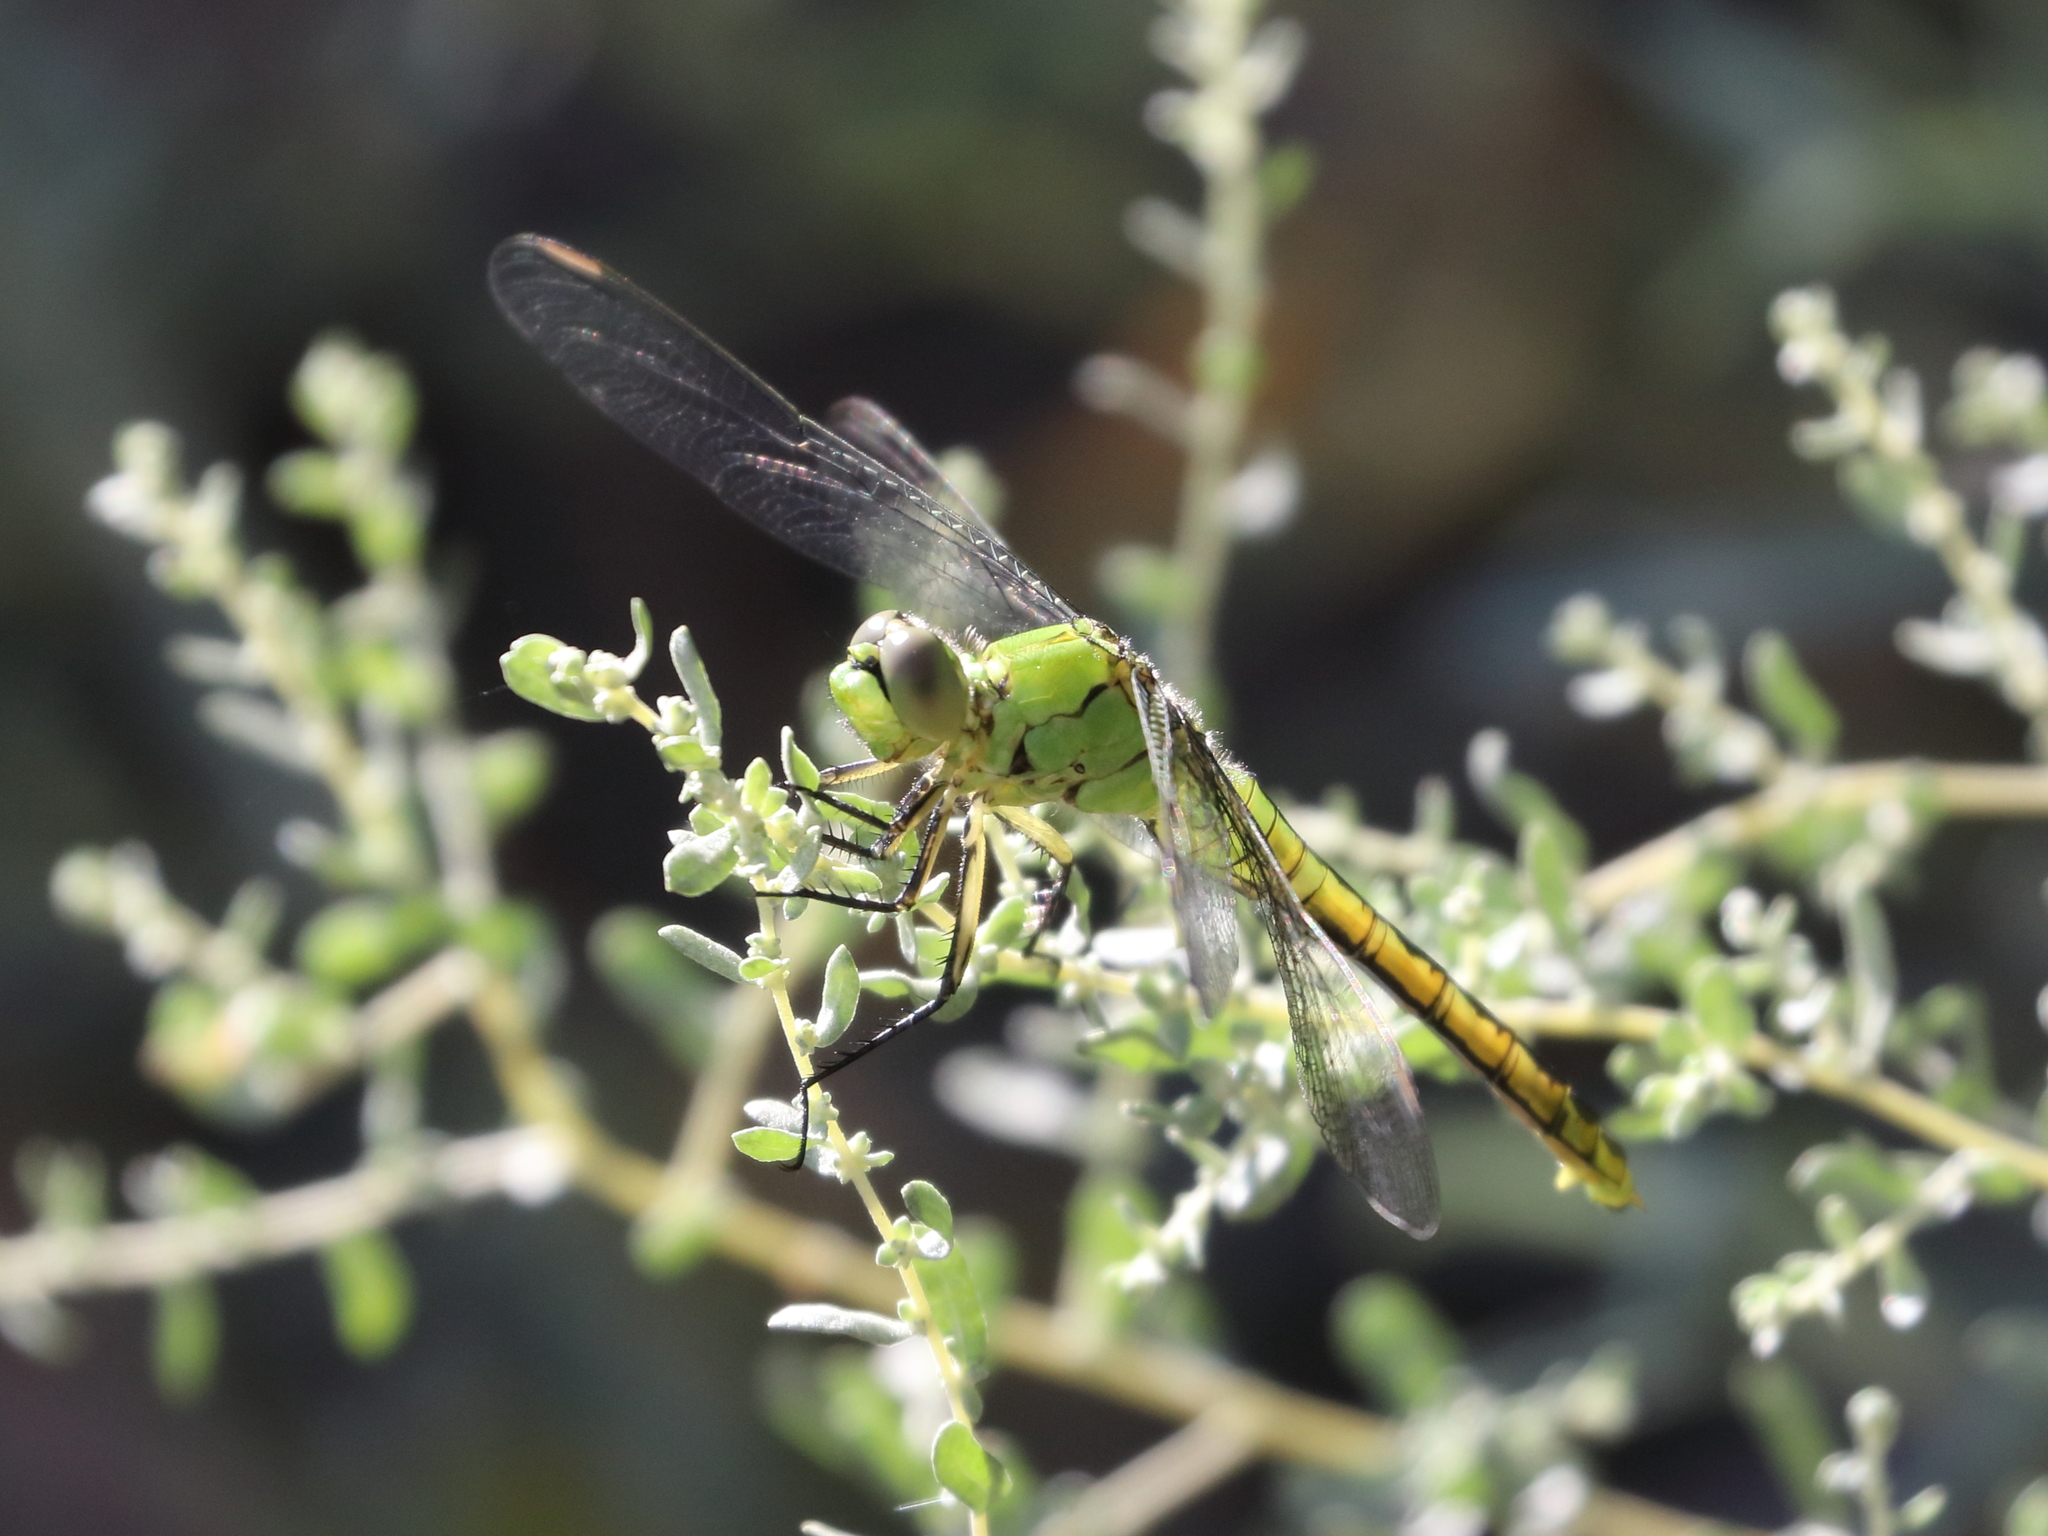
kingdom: Animalia
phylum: Arthropoda
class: Insecta
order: Odonata
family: Libellulidae
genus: Erythemis
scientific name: Erythemis collocata
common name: Western pondhawk
